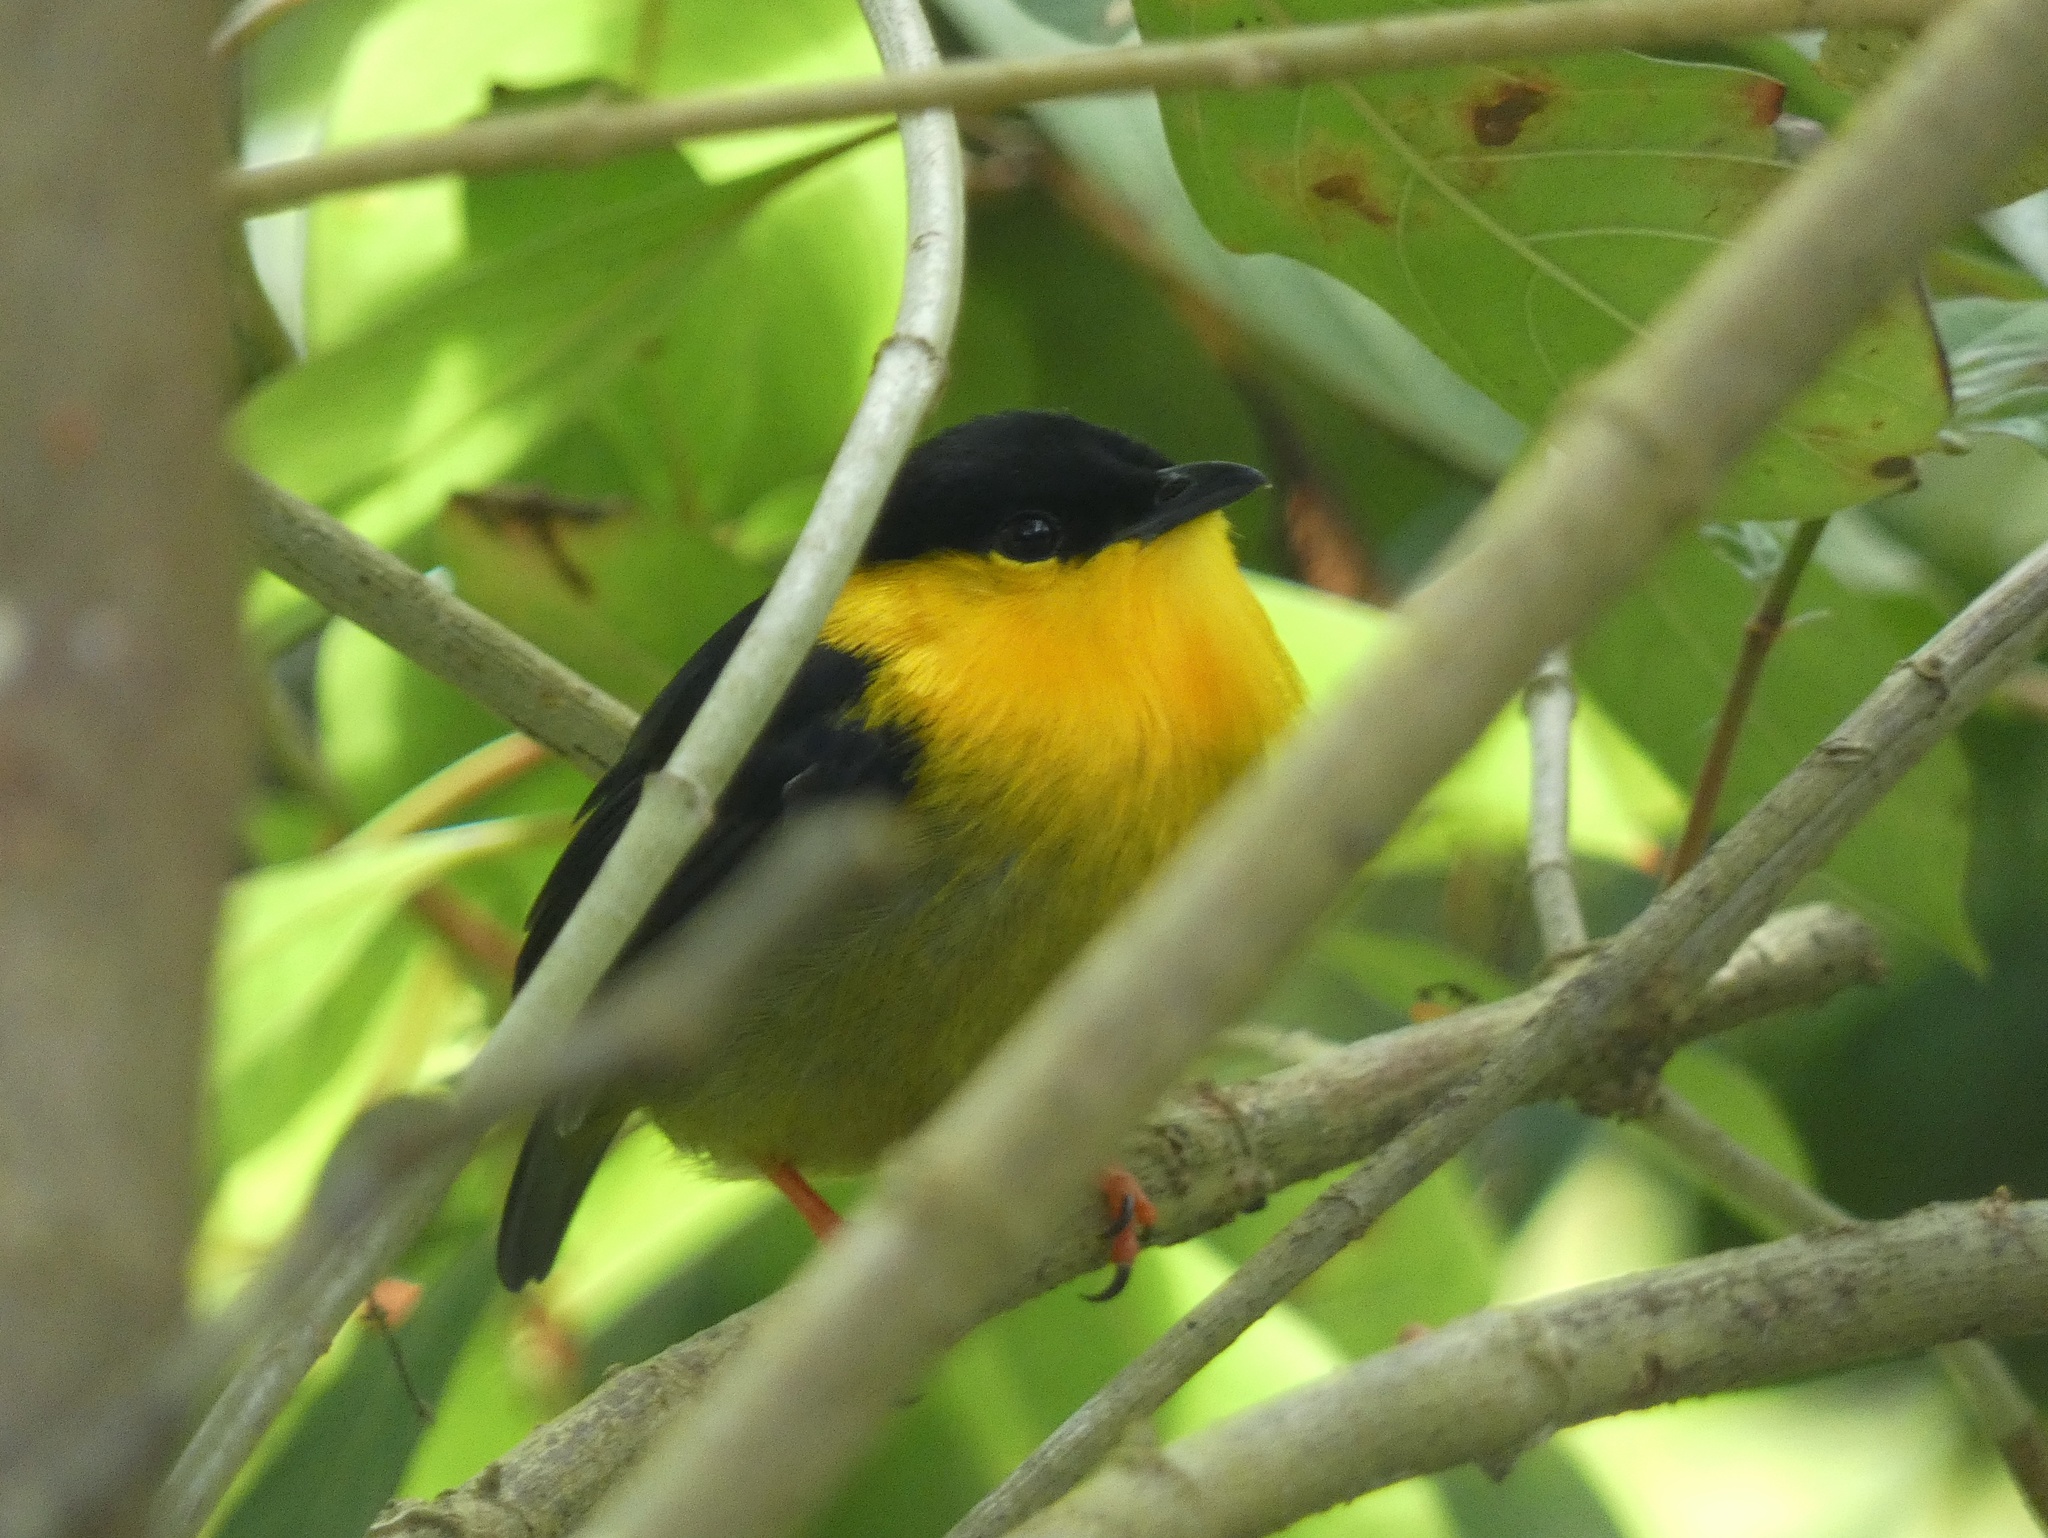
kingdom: Animalia
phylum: Chordata
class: Aves
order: Passeriformes
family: Pipridae
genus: Manacus
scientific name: Manacus vitellinus
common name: Golden-collared manakin
